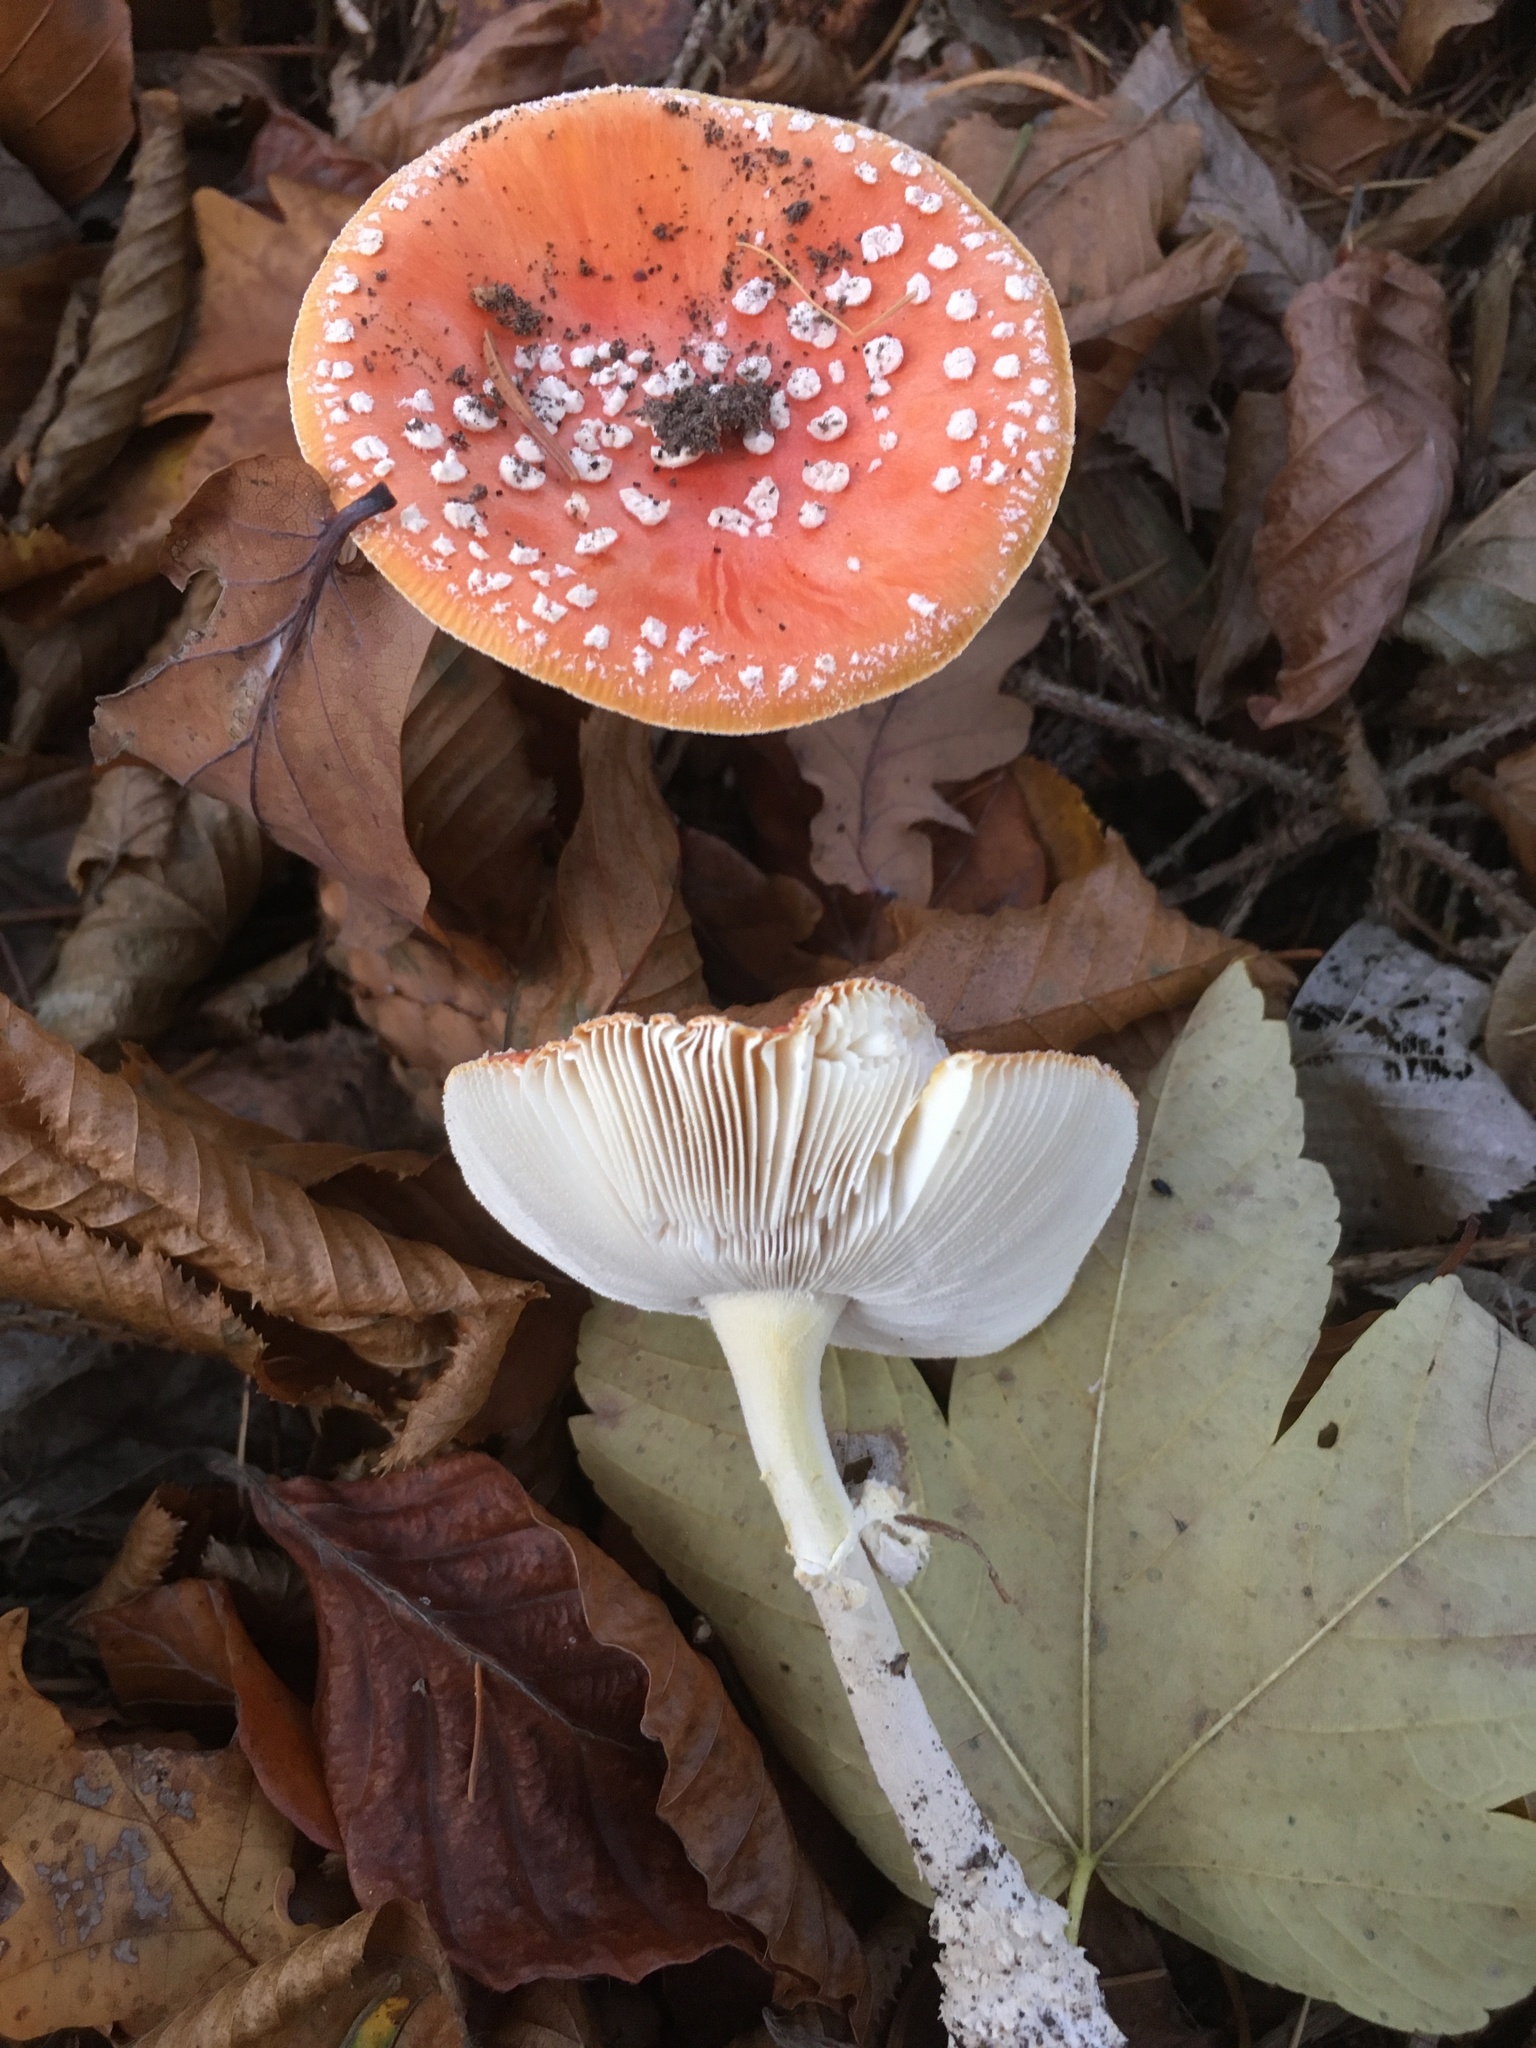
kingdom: Fungi
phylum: Basidiomycota
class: Agaricomycetes
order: Agaricales
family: Amanitaceae
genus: Amanita
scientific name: Amanita muscaria
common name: Fly agaric
